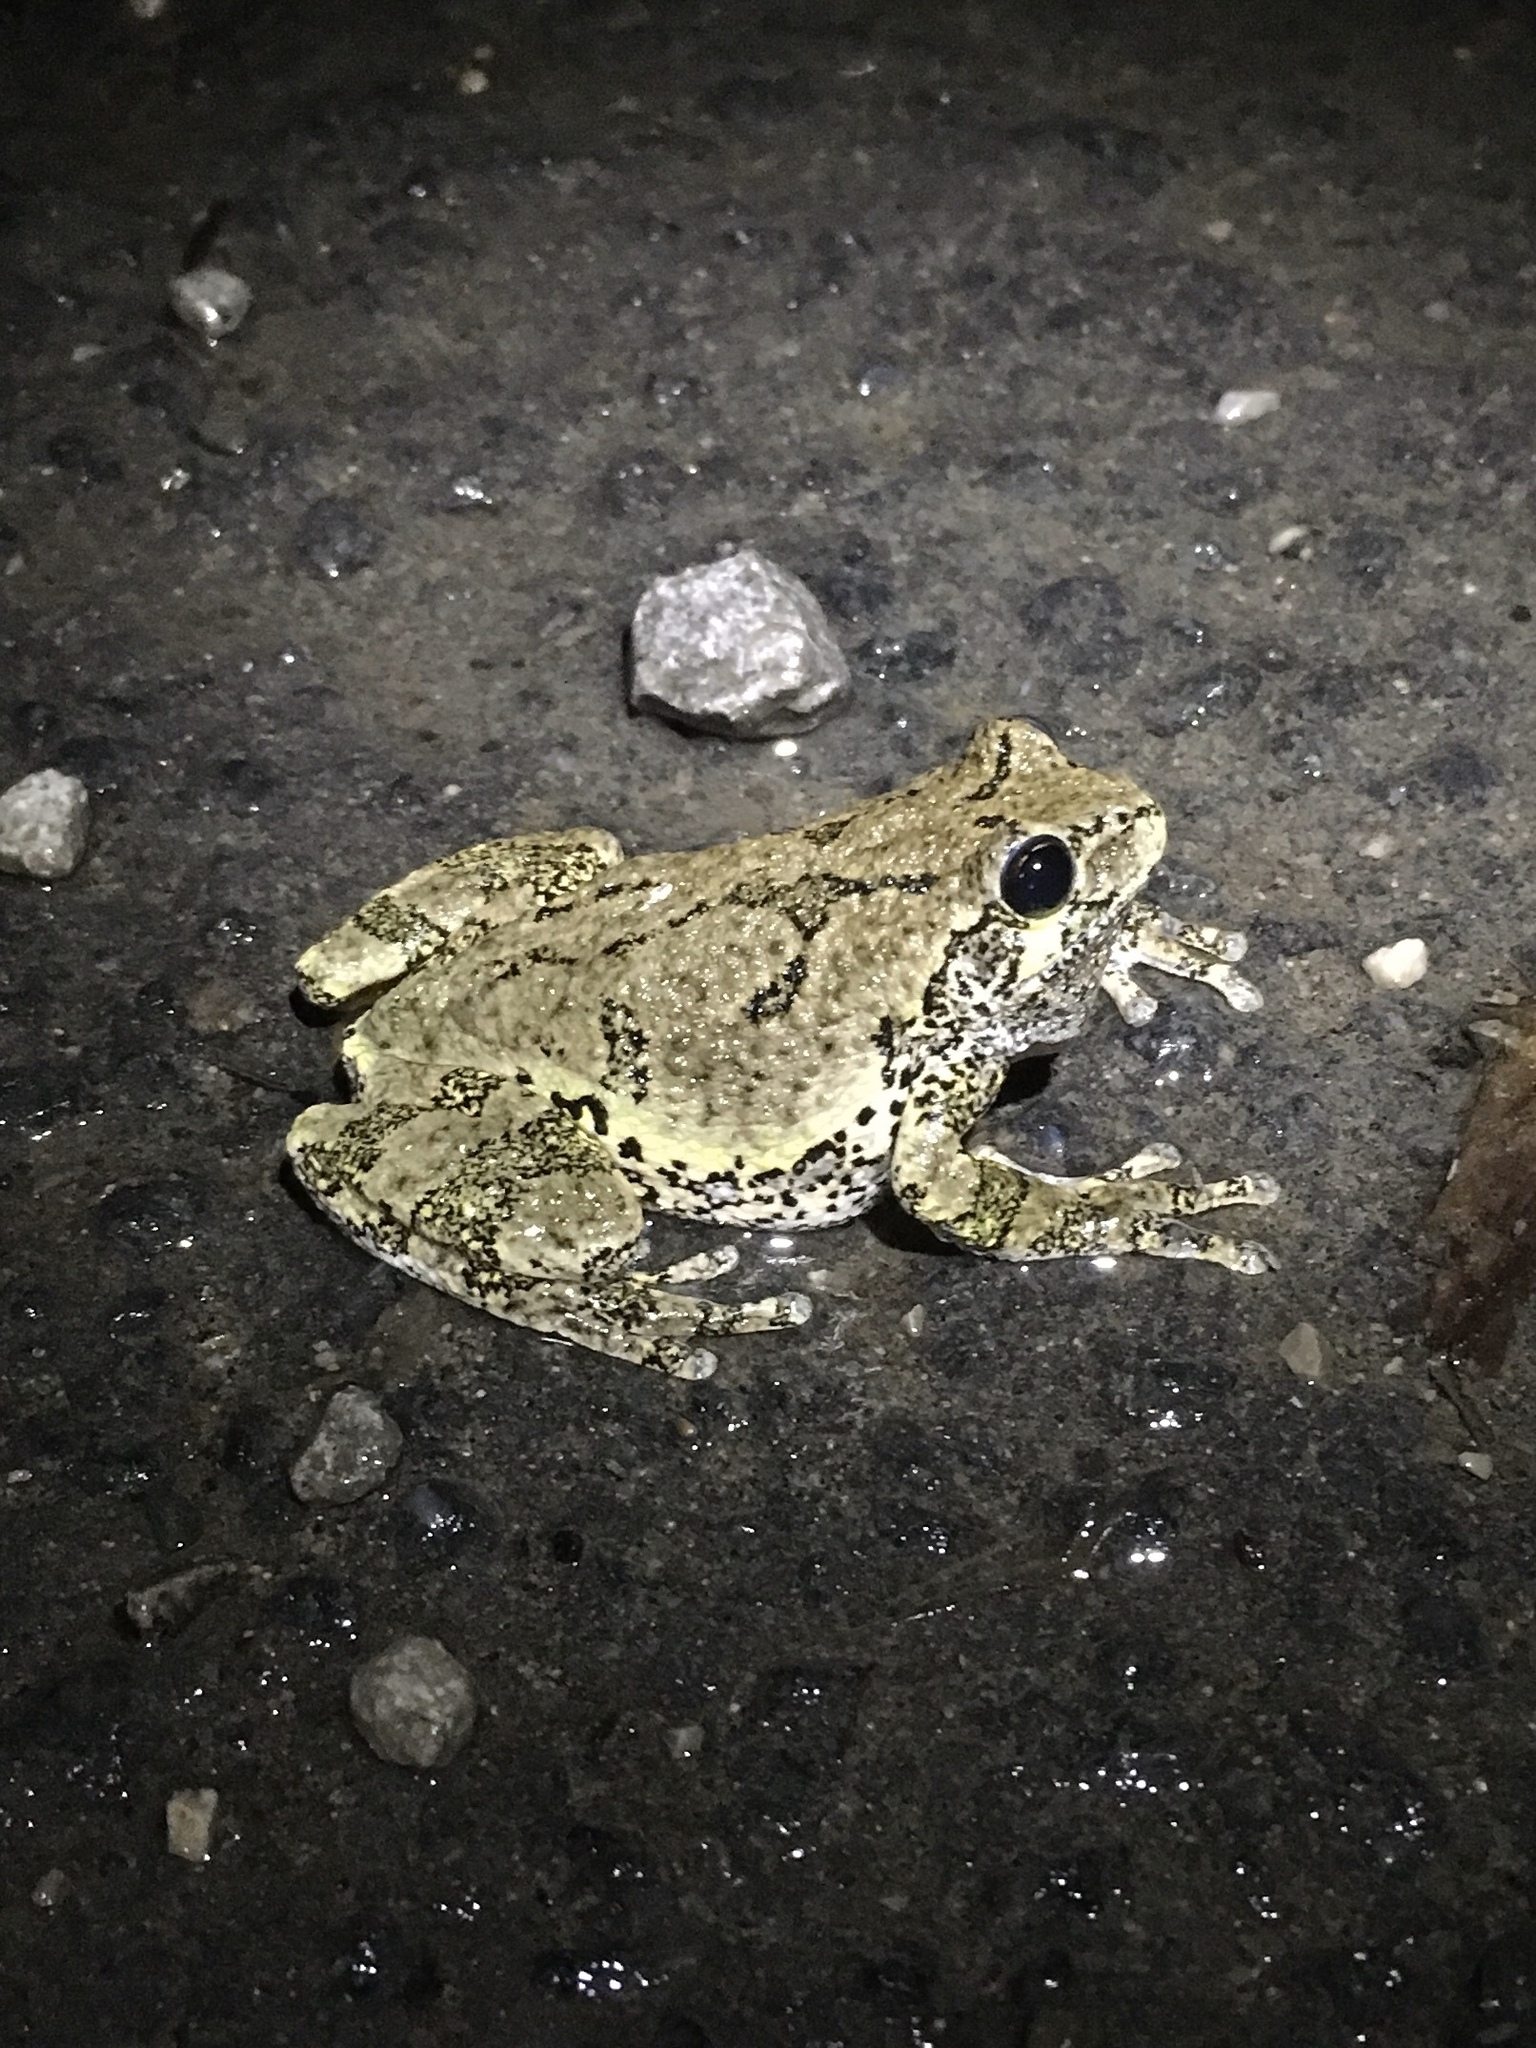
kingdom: Animalia
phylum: Chordata
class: Amphibia
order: Anura
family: Hylidae
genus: Dryophytes
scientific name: Dryophytes versicolor
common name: Gray treefrog
